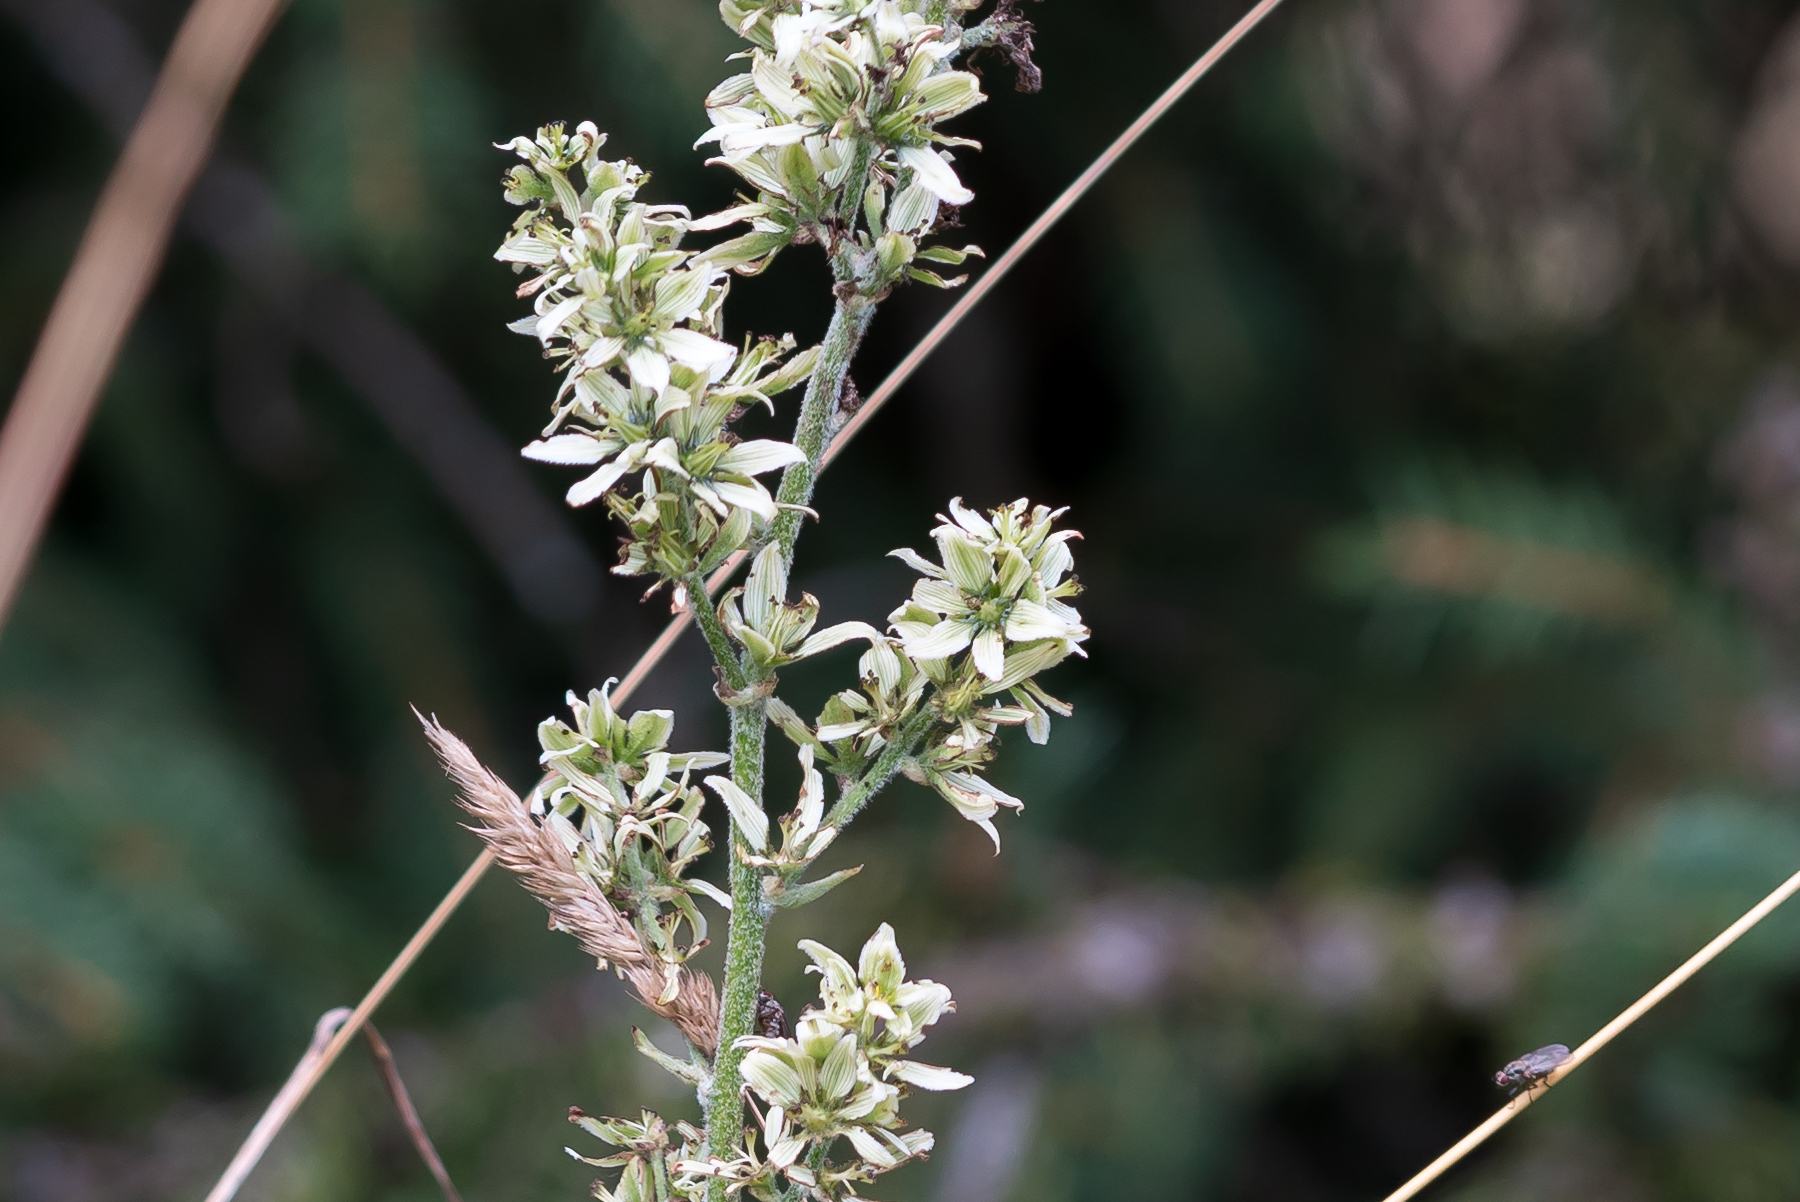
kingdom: Plantae
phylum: Tracheophyta
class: Liliopsida
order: Liliales
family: Melanthiaceae
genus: Veratrum
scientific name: Veratrum album
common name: White veratrum
